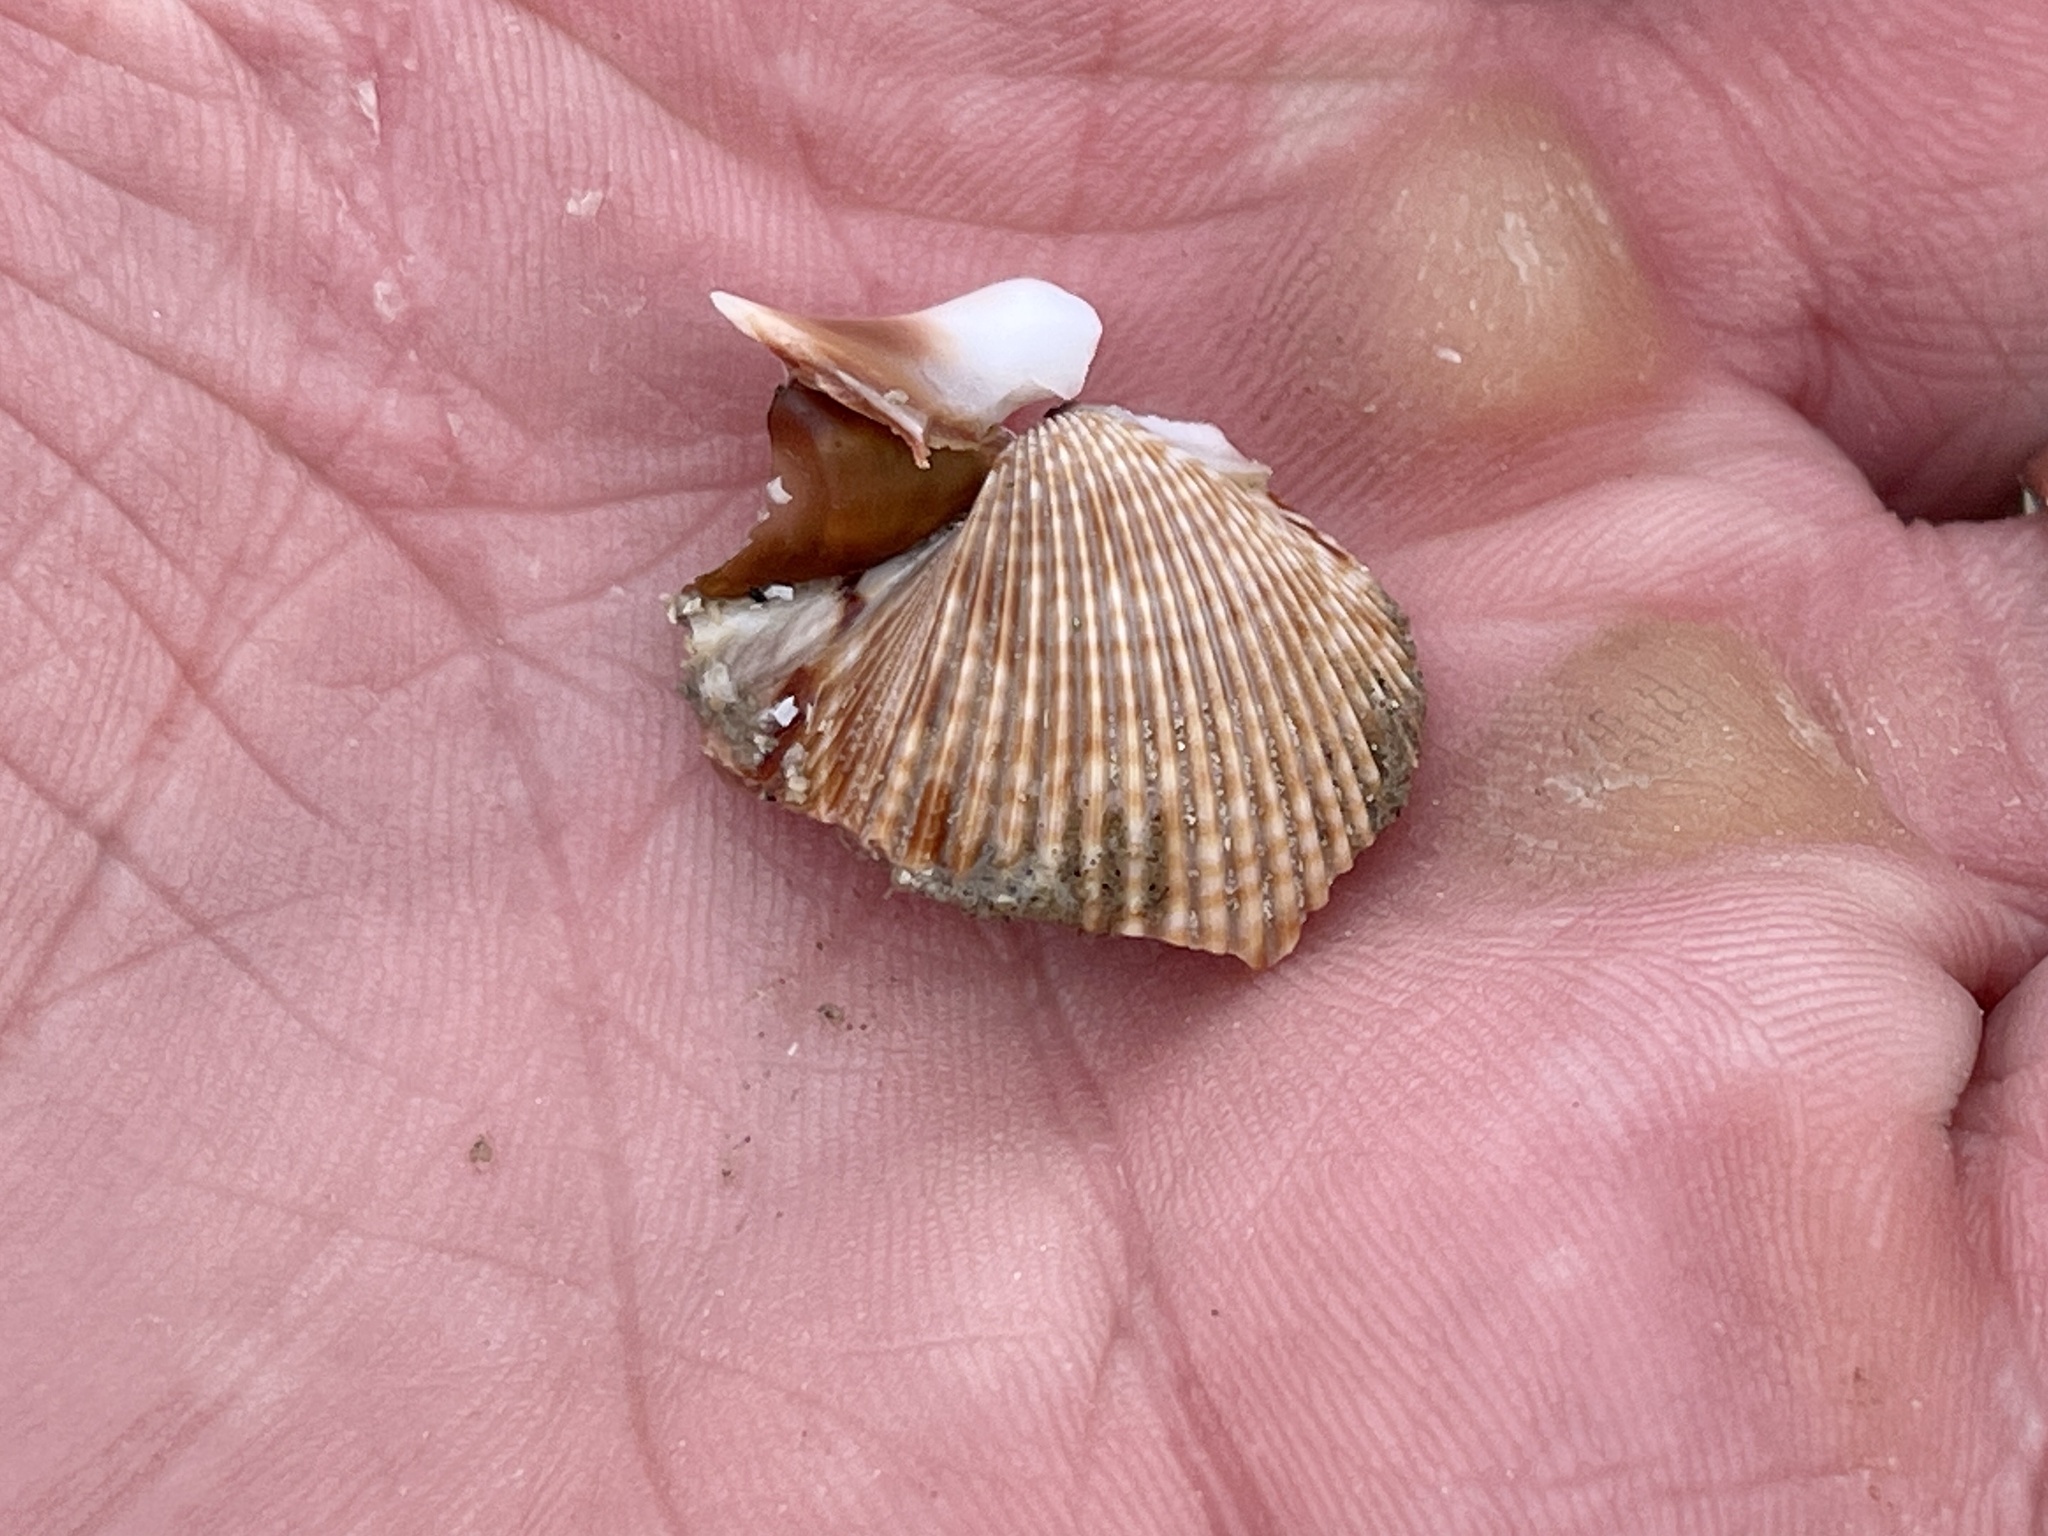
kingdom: Animalia
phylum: Mollusca
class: Bivalvia
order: Cardiida
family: Cardiidae
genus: Dinocardium
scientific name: Dinocardium robustum
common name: Atlantic giant cockle
